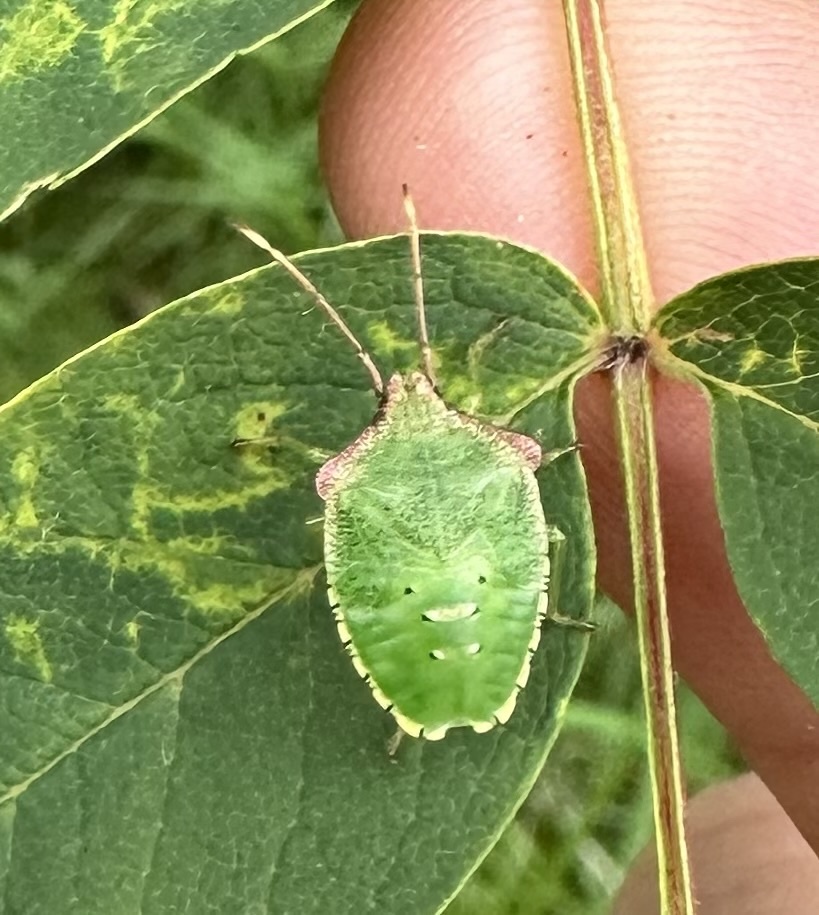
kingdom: Animalia
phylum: Arthropoda
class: Insecta
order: Hemiptera
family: Acanthosomatidae
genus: Acanthosoma
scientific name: Acanthosoma haemorrhoidale
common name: Hawthorn shieldbug
